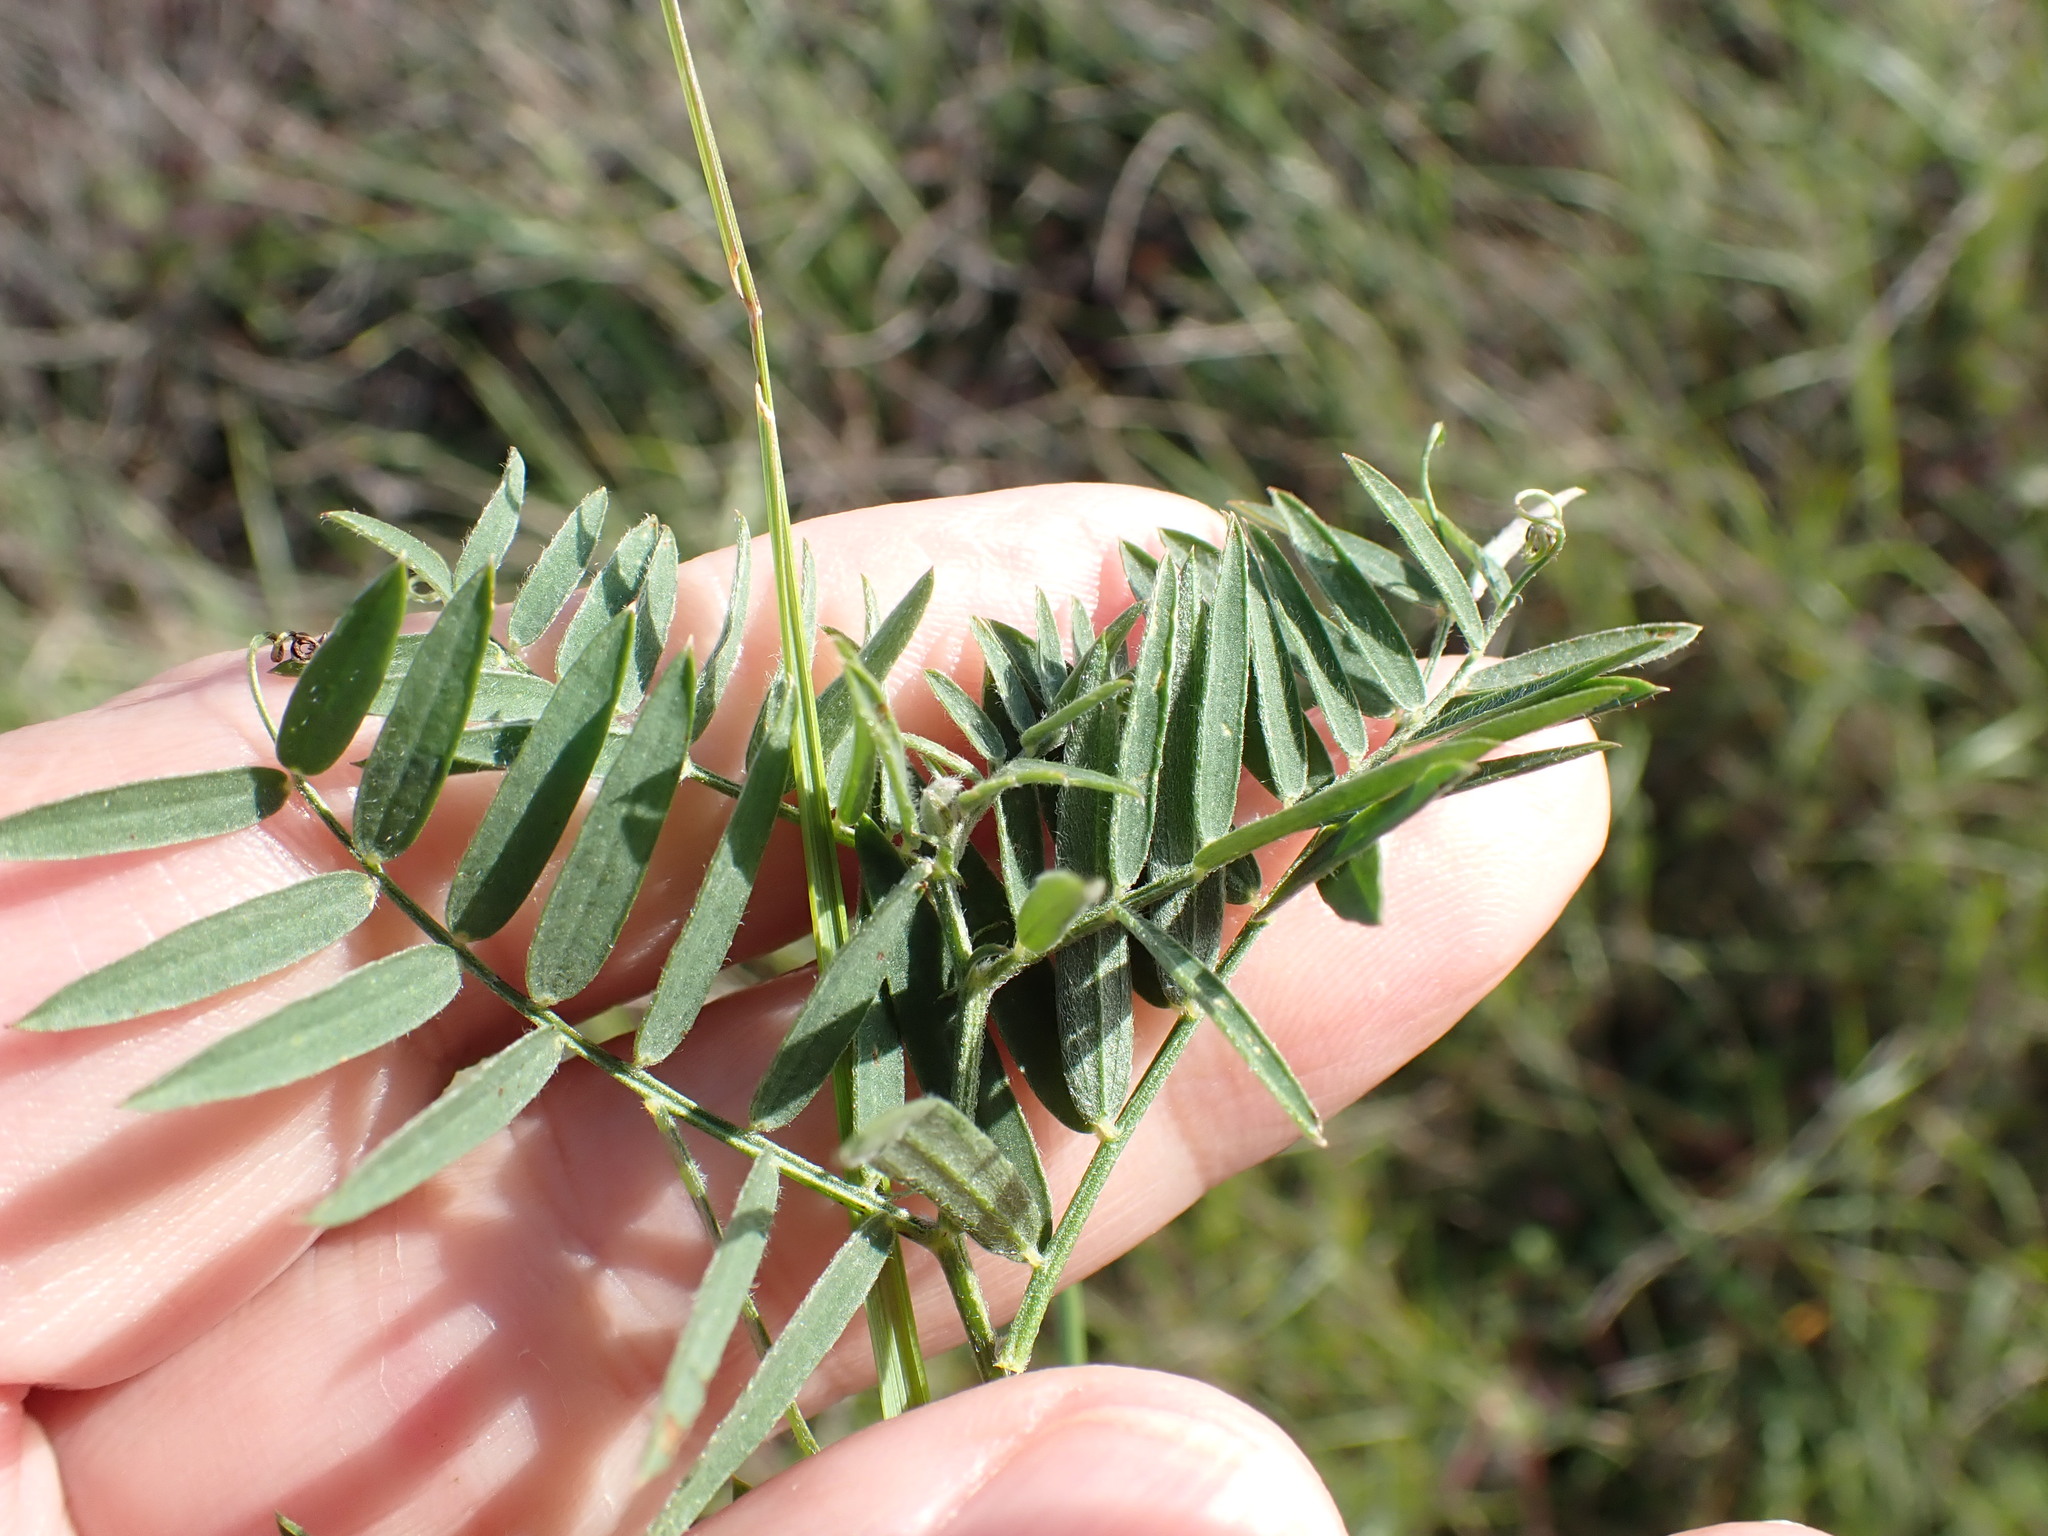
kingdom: Plantae
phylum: Tracheophyta
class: Magnoliopsida
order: Fabales
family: Fabaceae
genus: Vicia
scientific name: Vicia cracca
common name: Bird vetch
